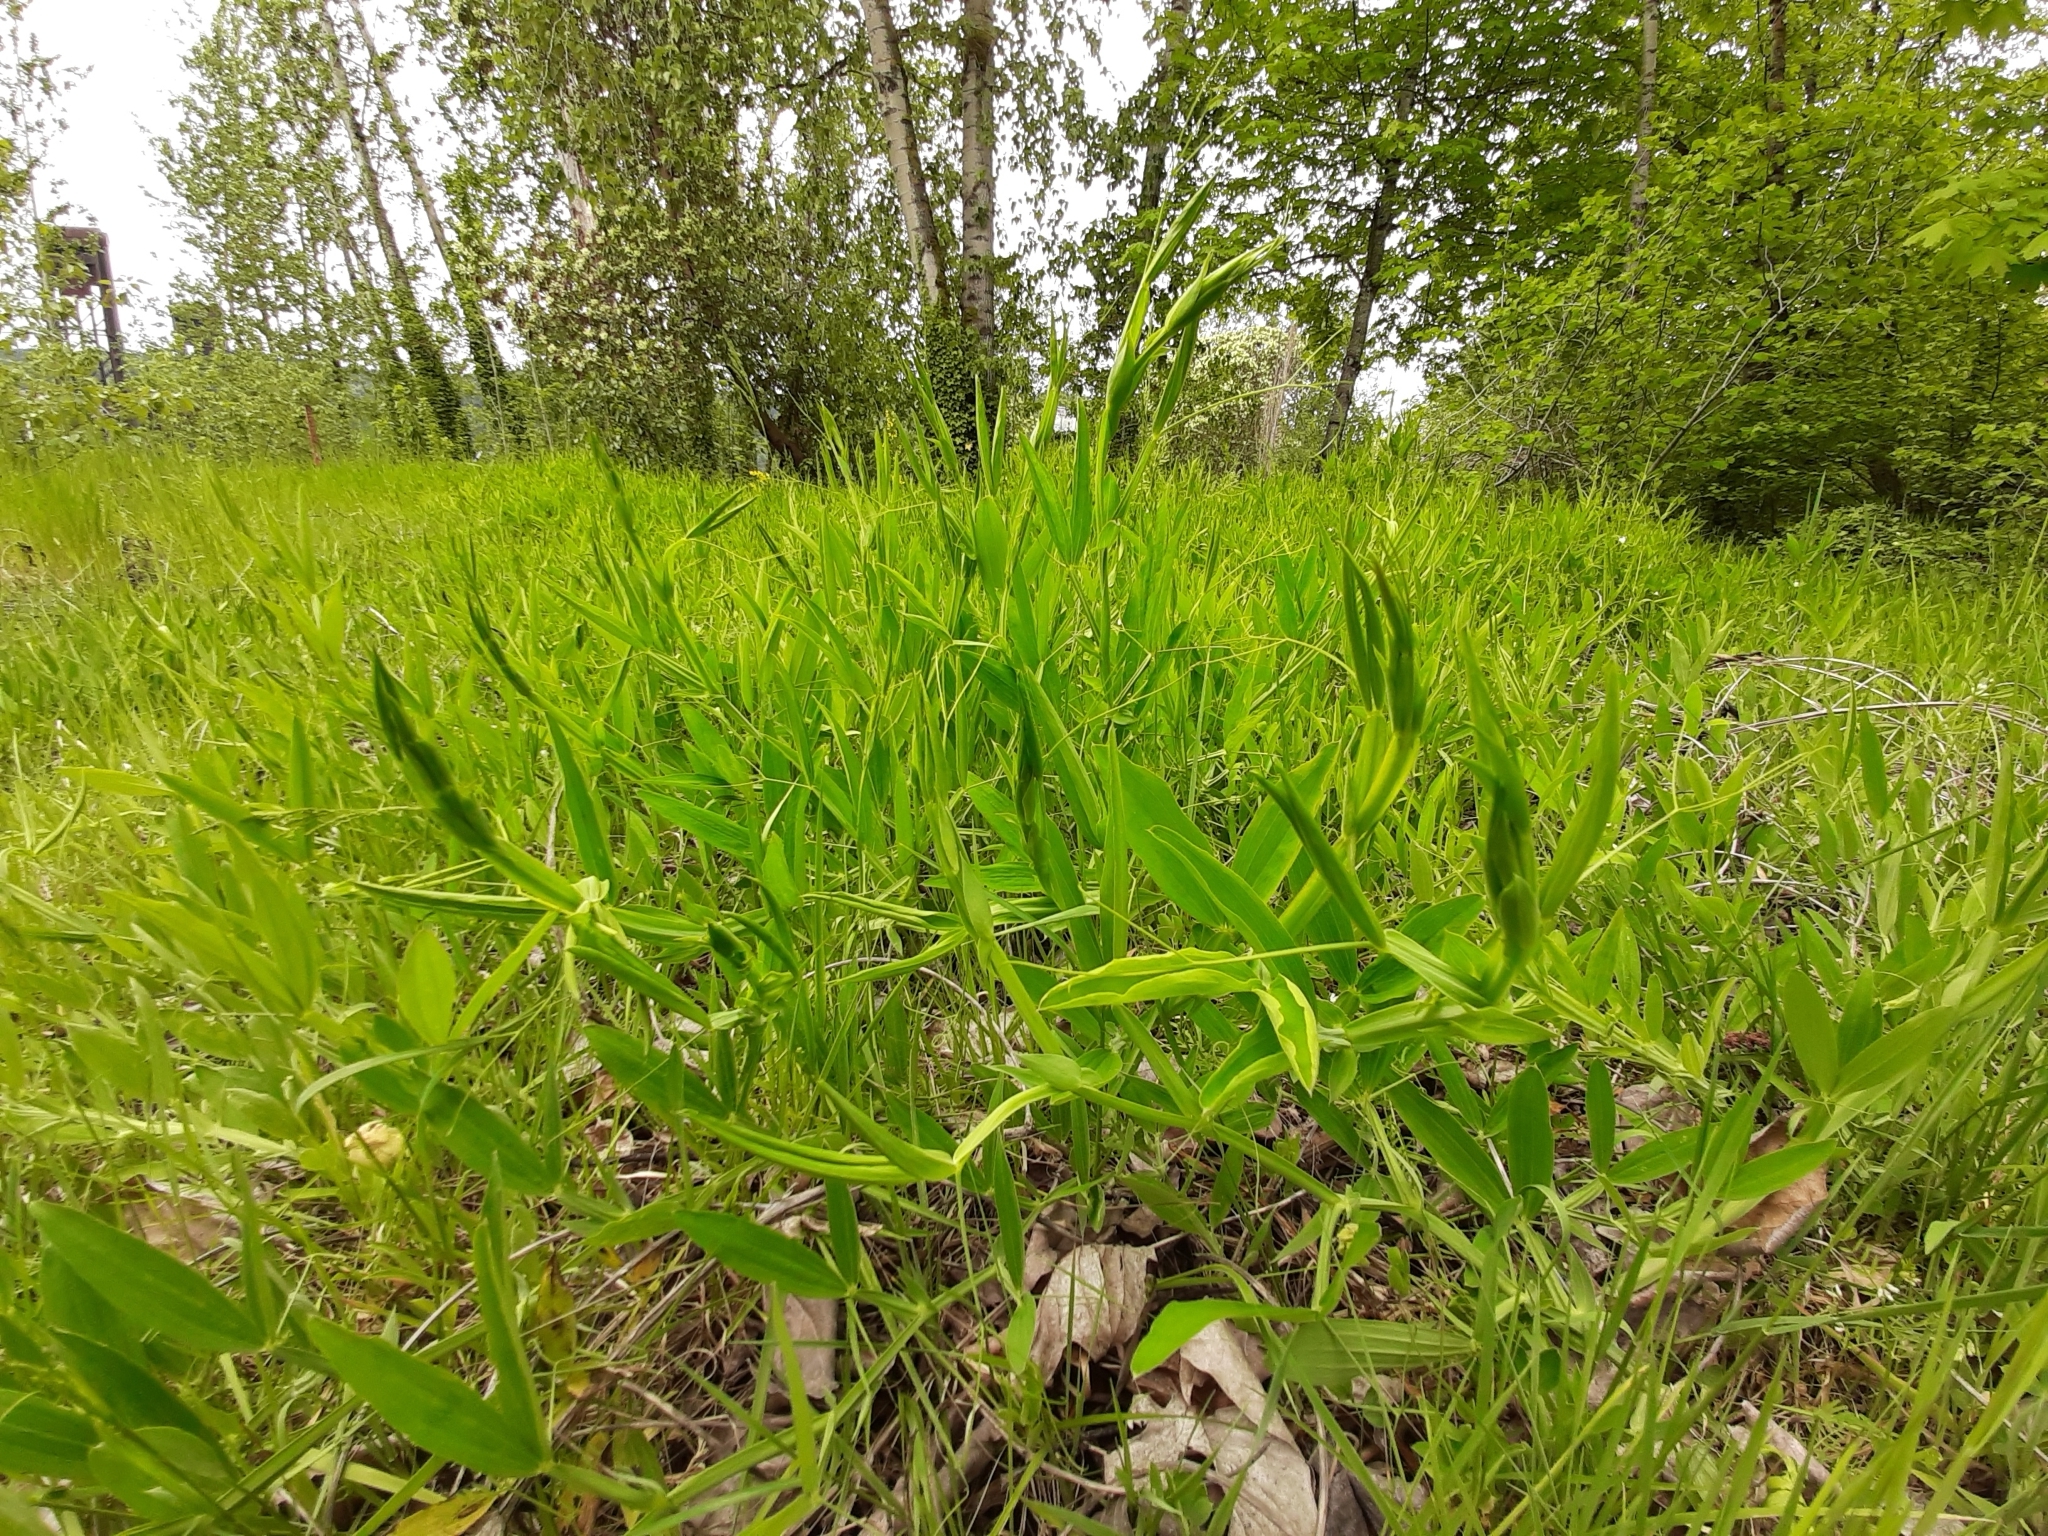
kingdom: Plantae
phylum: Tracheophyta
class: Magnoliopsida
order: Fabales
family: Fabaceae
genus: Lathyrus
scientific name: Lathyrus latifolius
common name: Perennial pea
